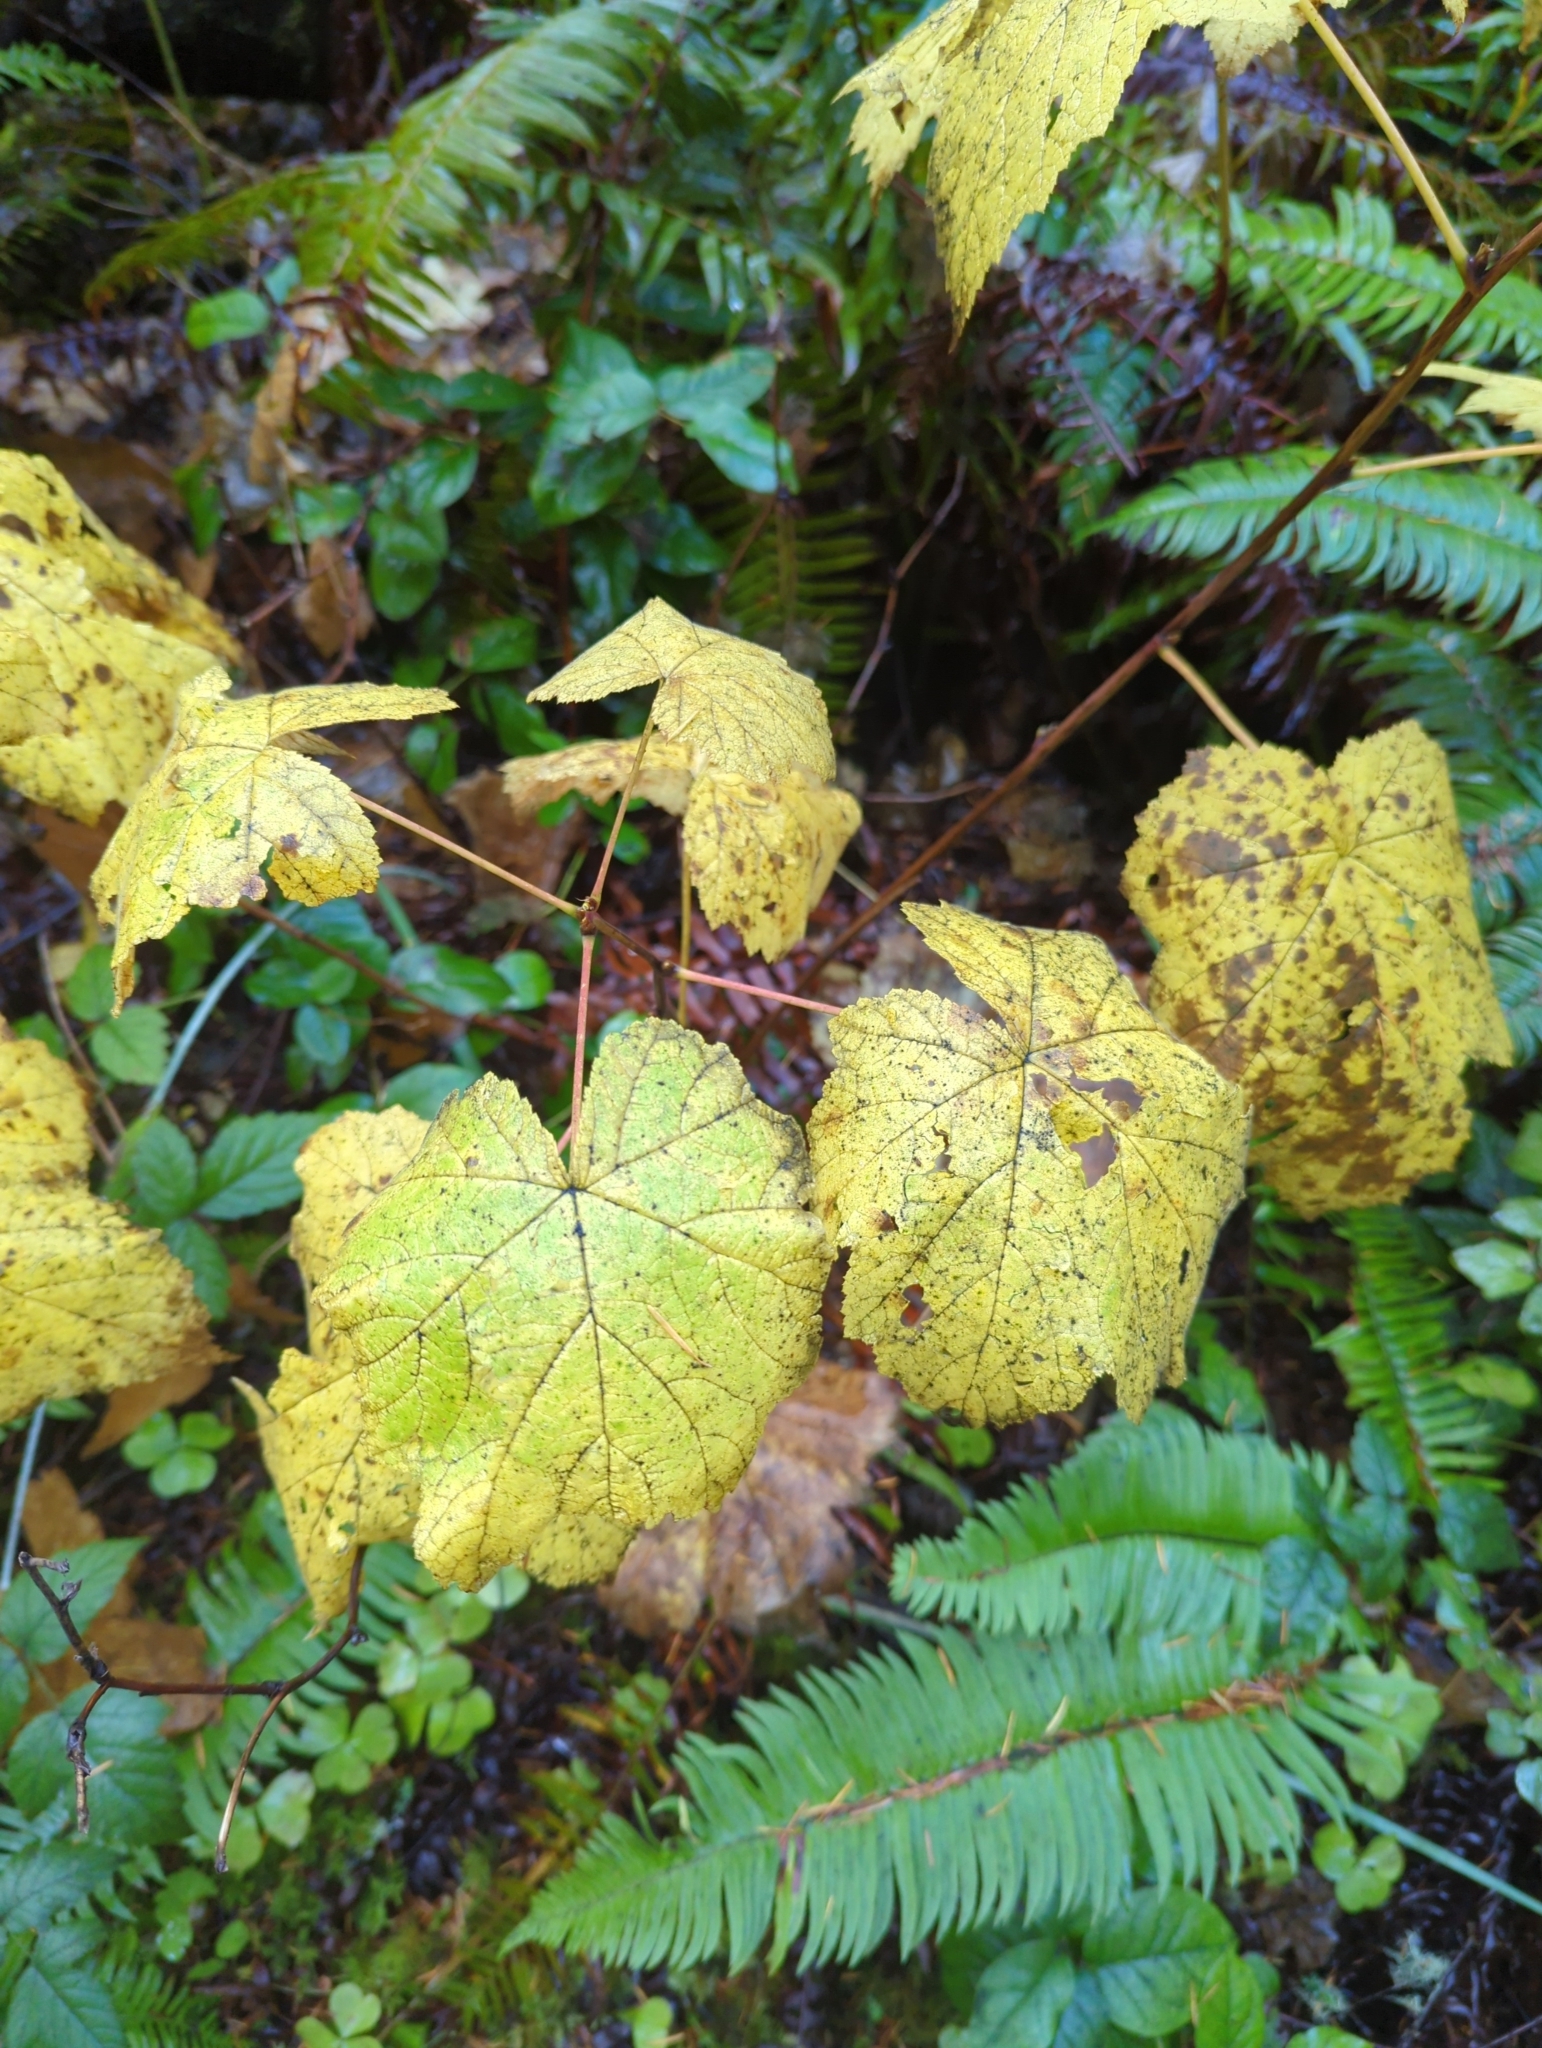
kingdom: Plantae
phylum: Tracheophyta
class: Magnoliopsida
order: Rosales
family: Rosaceae
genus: Rubus
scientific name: Rubus parviflorus
